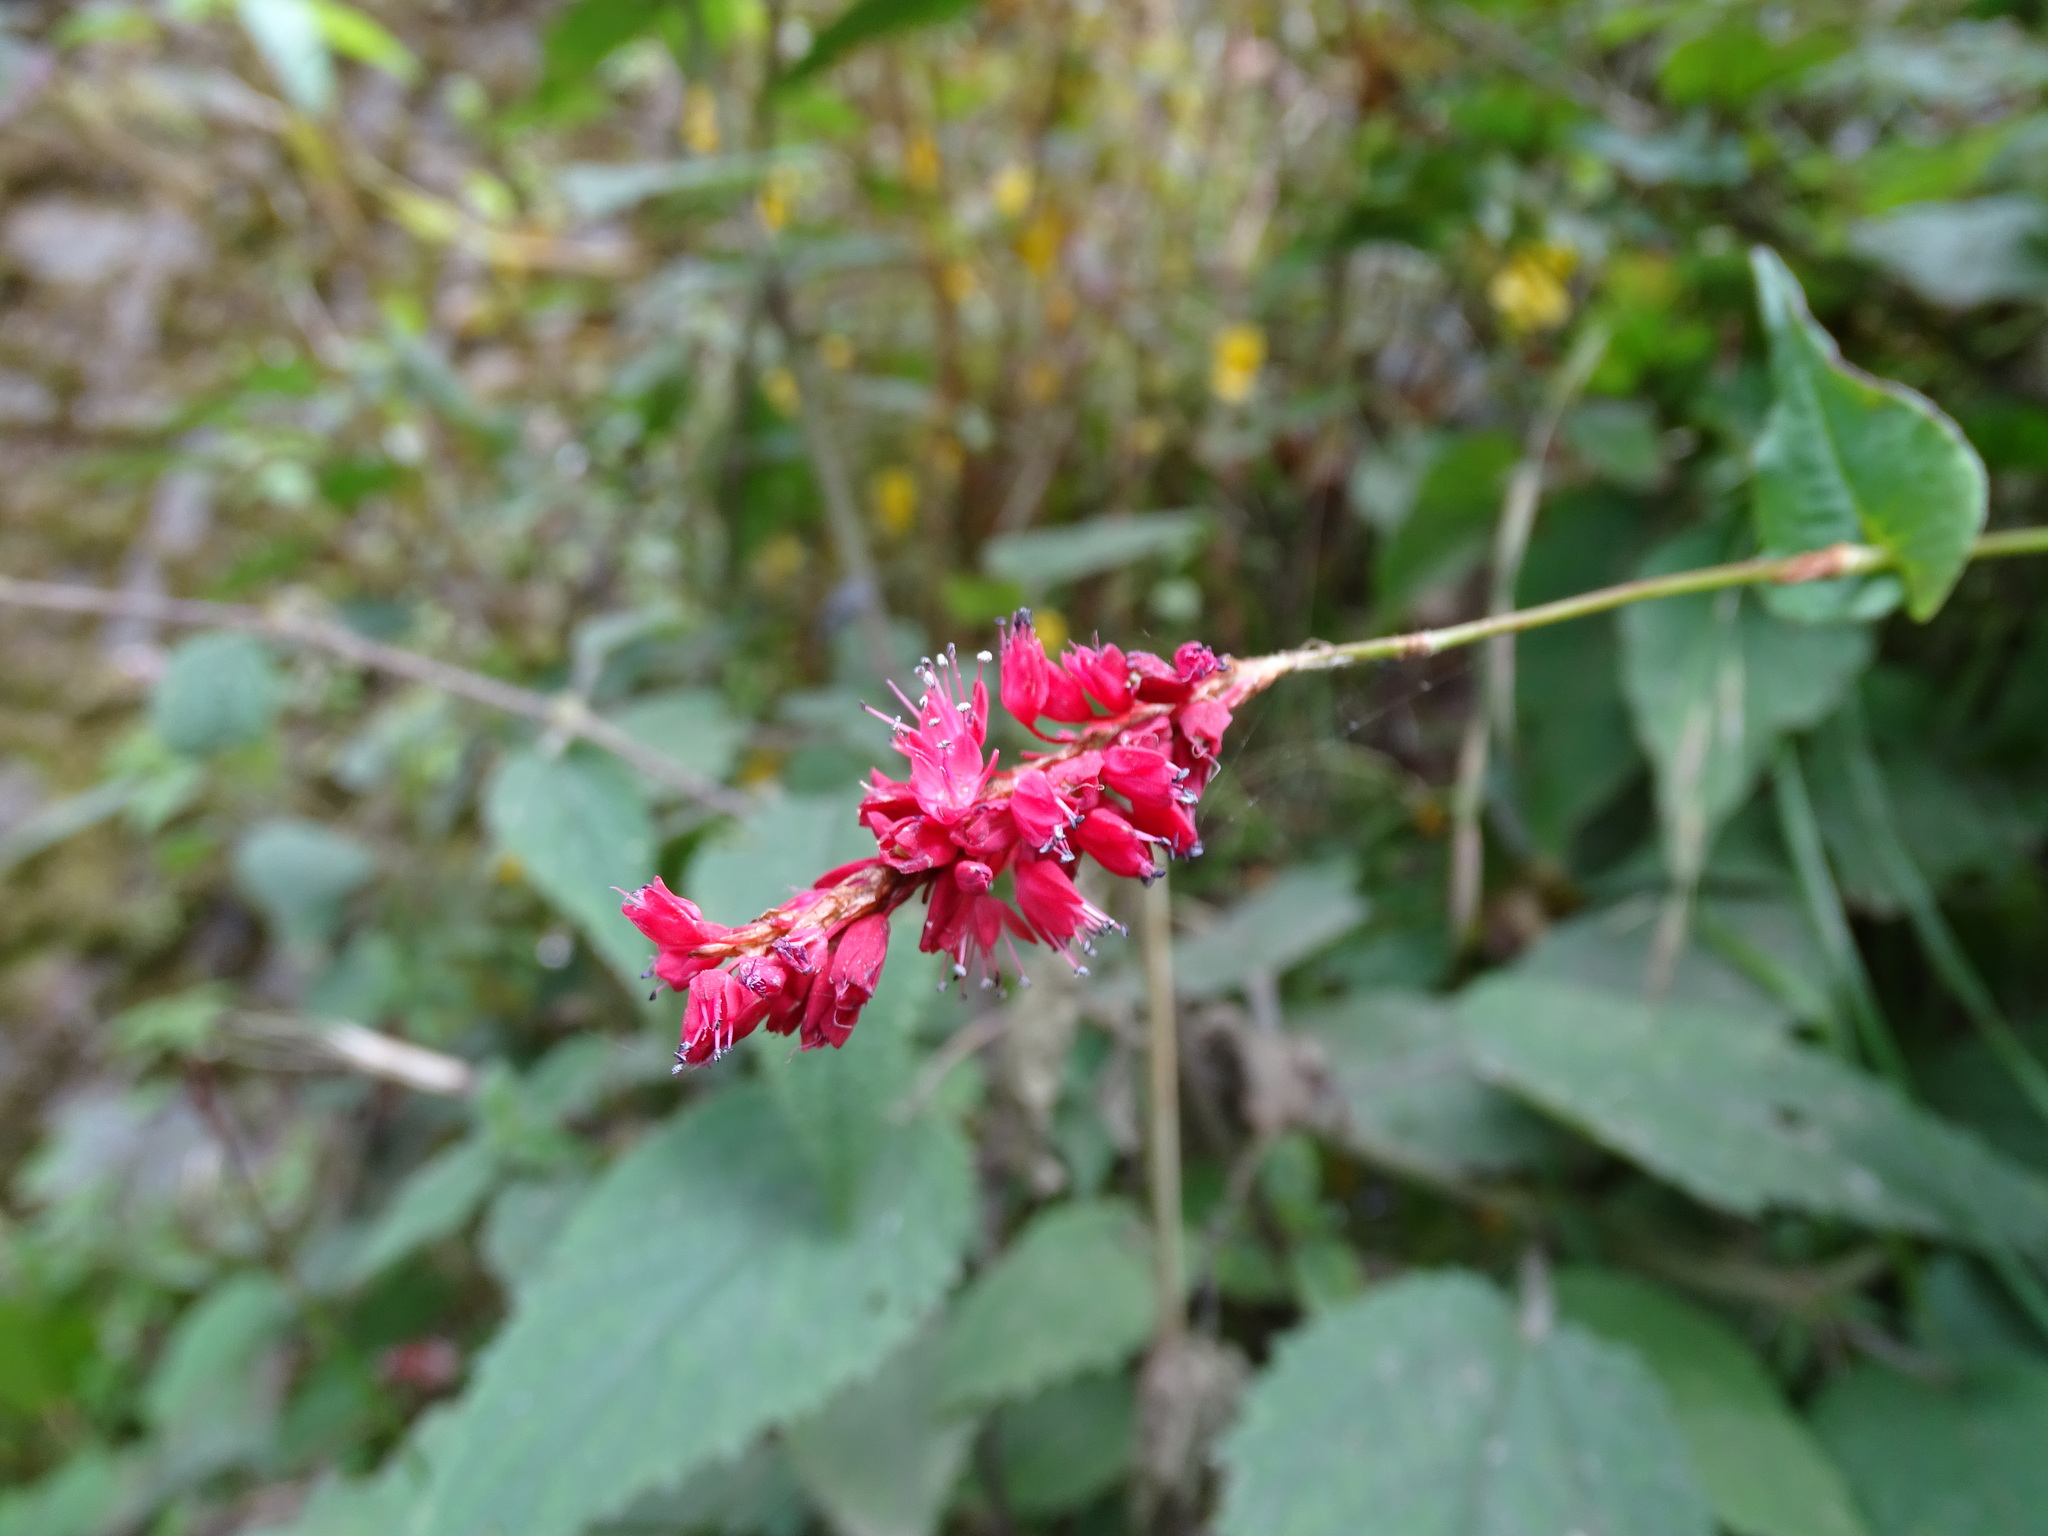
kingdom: Plantae
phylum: Tracheophyta
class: Magnoliopsida
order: Caryophyllales
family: Polygonaceae
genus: Bistorta
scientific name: Bistorta amplexicaulis
